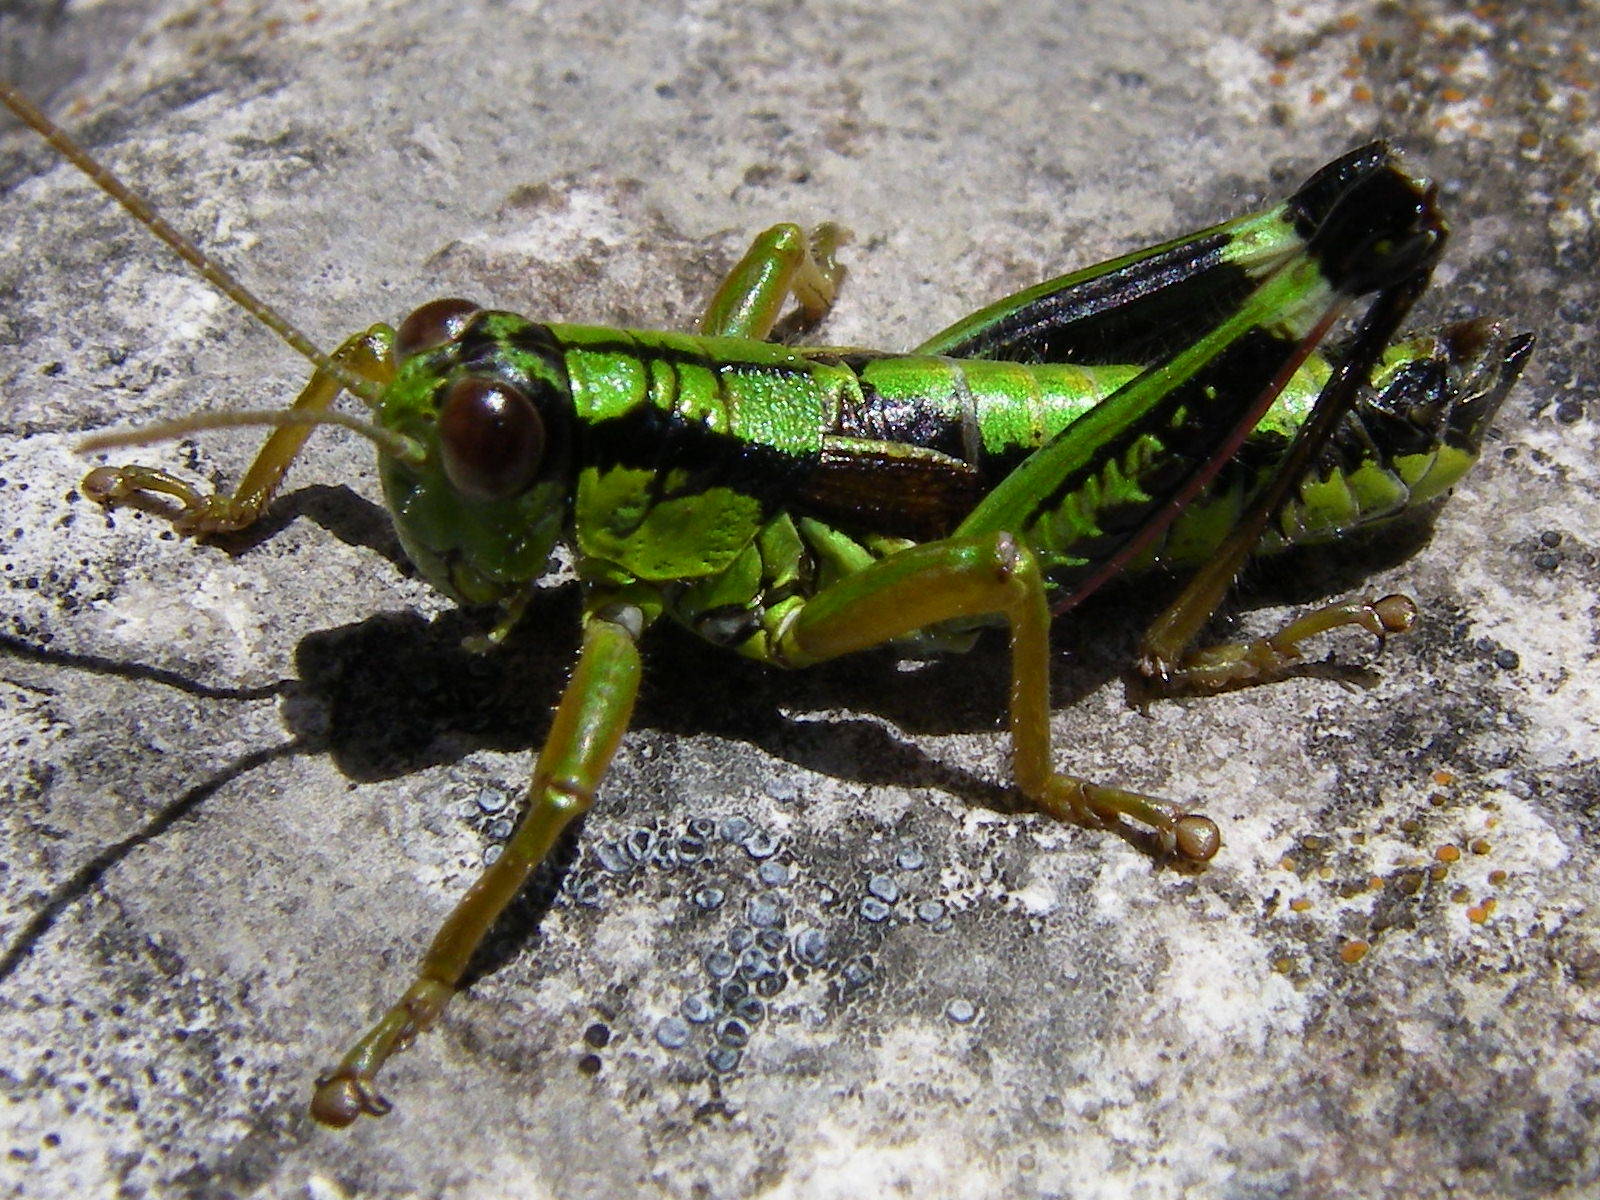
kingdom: Animalia
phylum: Arthropoda
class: Insecta
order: Orthoptera
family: Acrididae
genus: Miramella
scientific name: Miramella alpina
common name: Green mountain grasshopper
